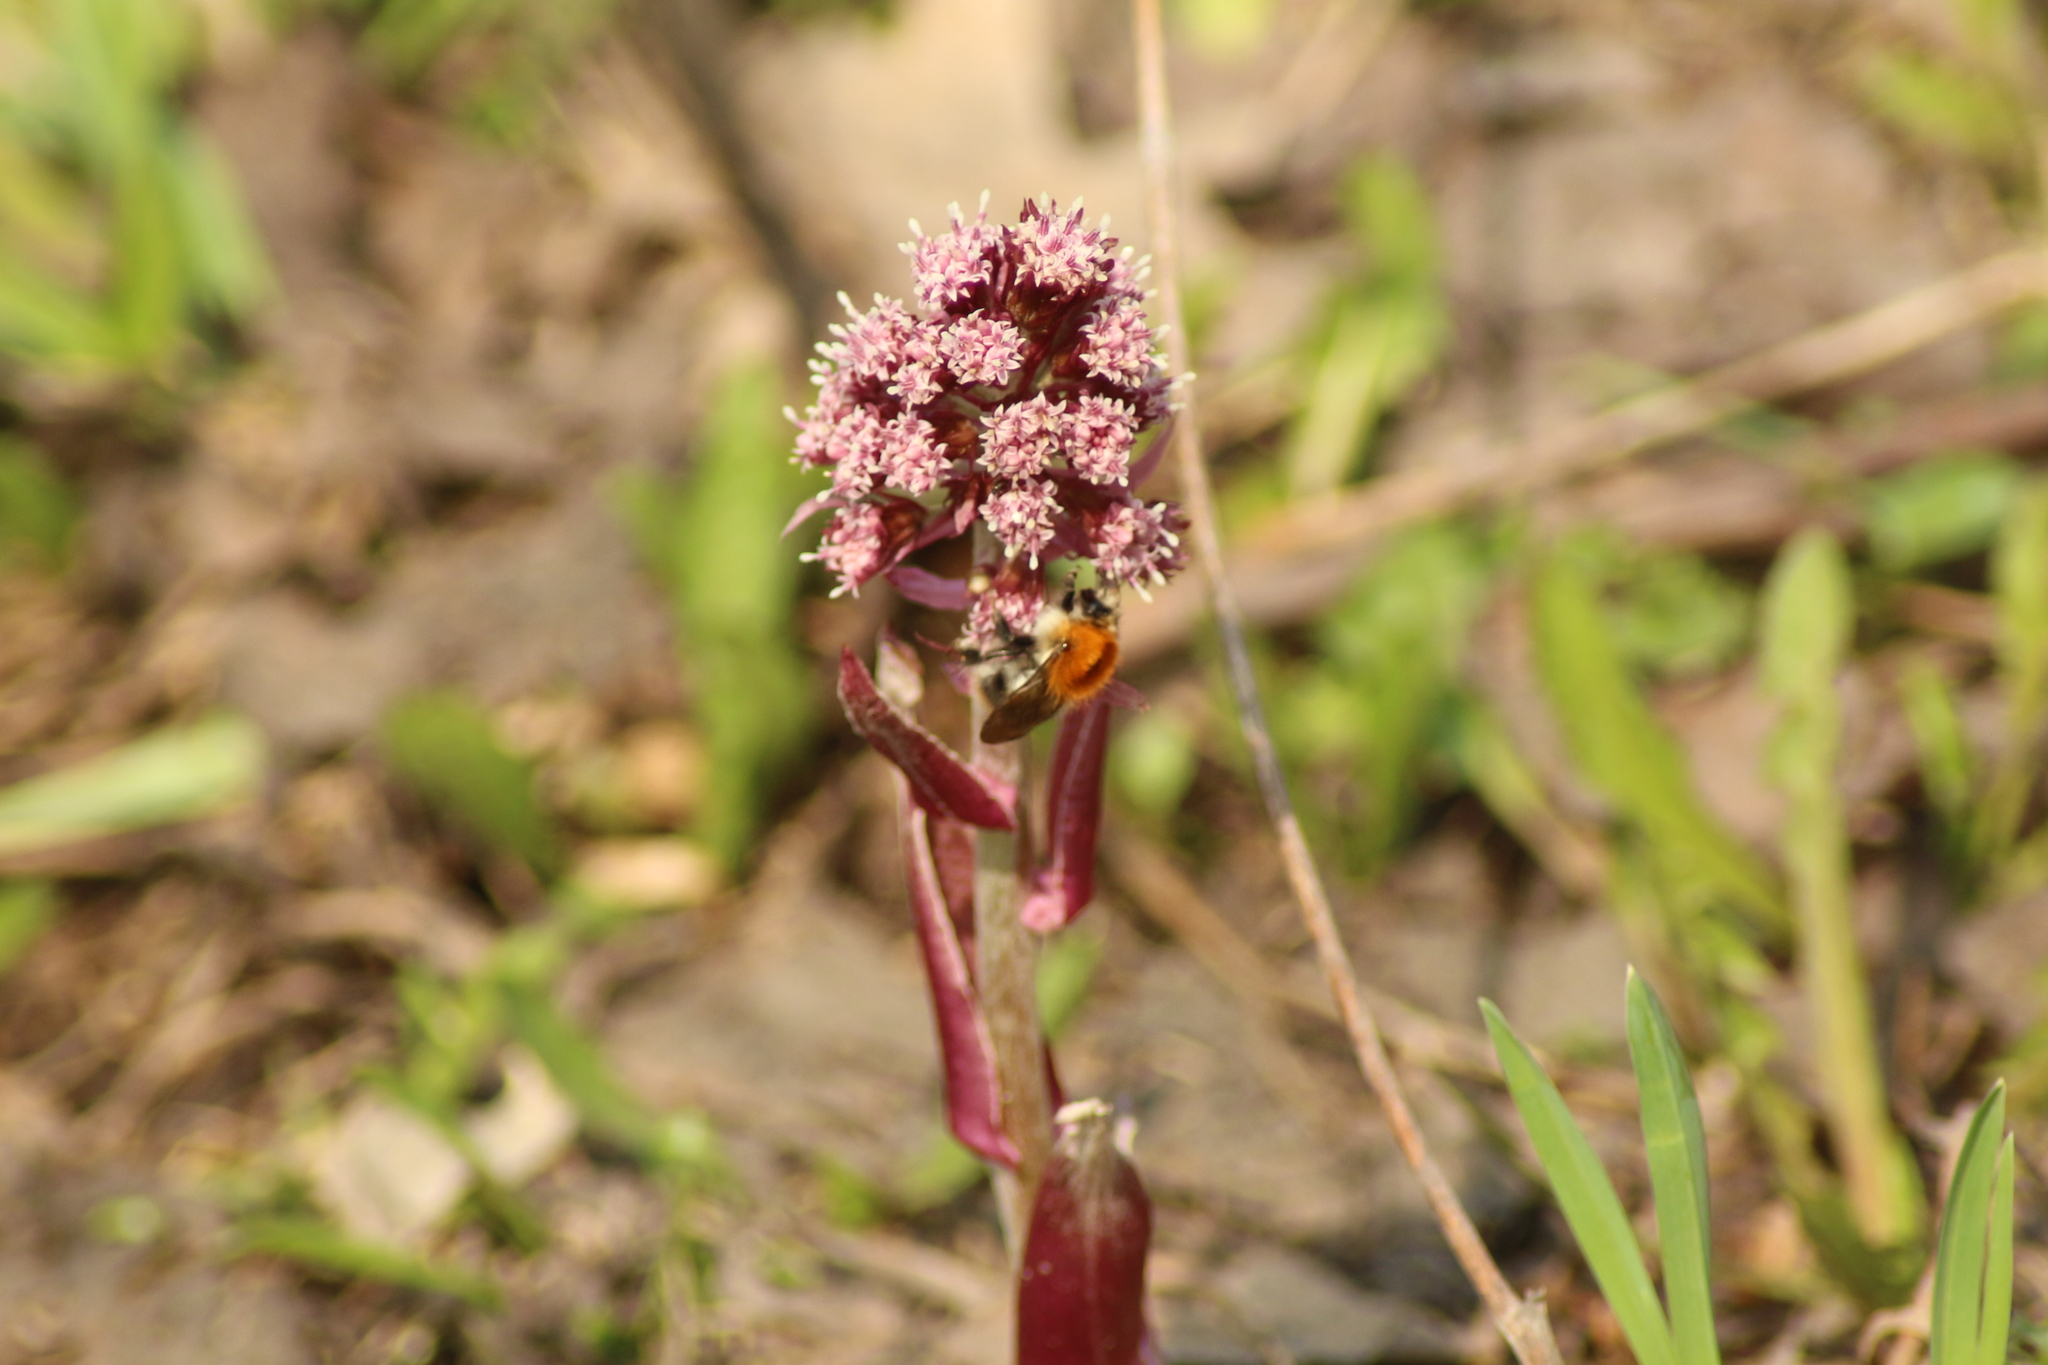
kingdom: Plantae
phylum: Tracheophyta
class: Magnoliopsida
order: Asterales
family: Asteraceae
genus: Petasites
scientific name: Petasites hybridus
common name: Butterbur
